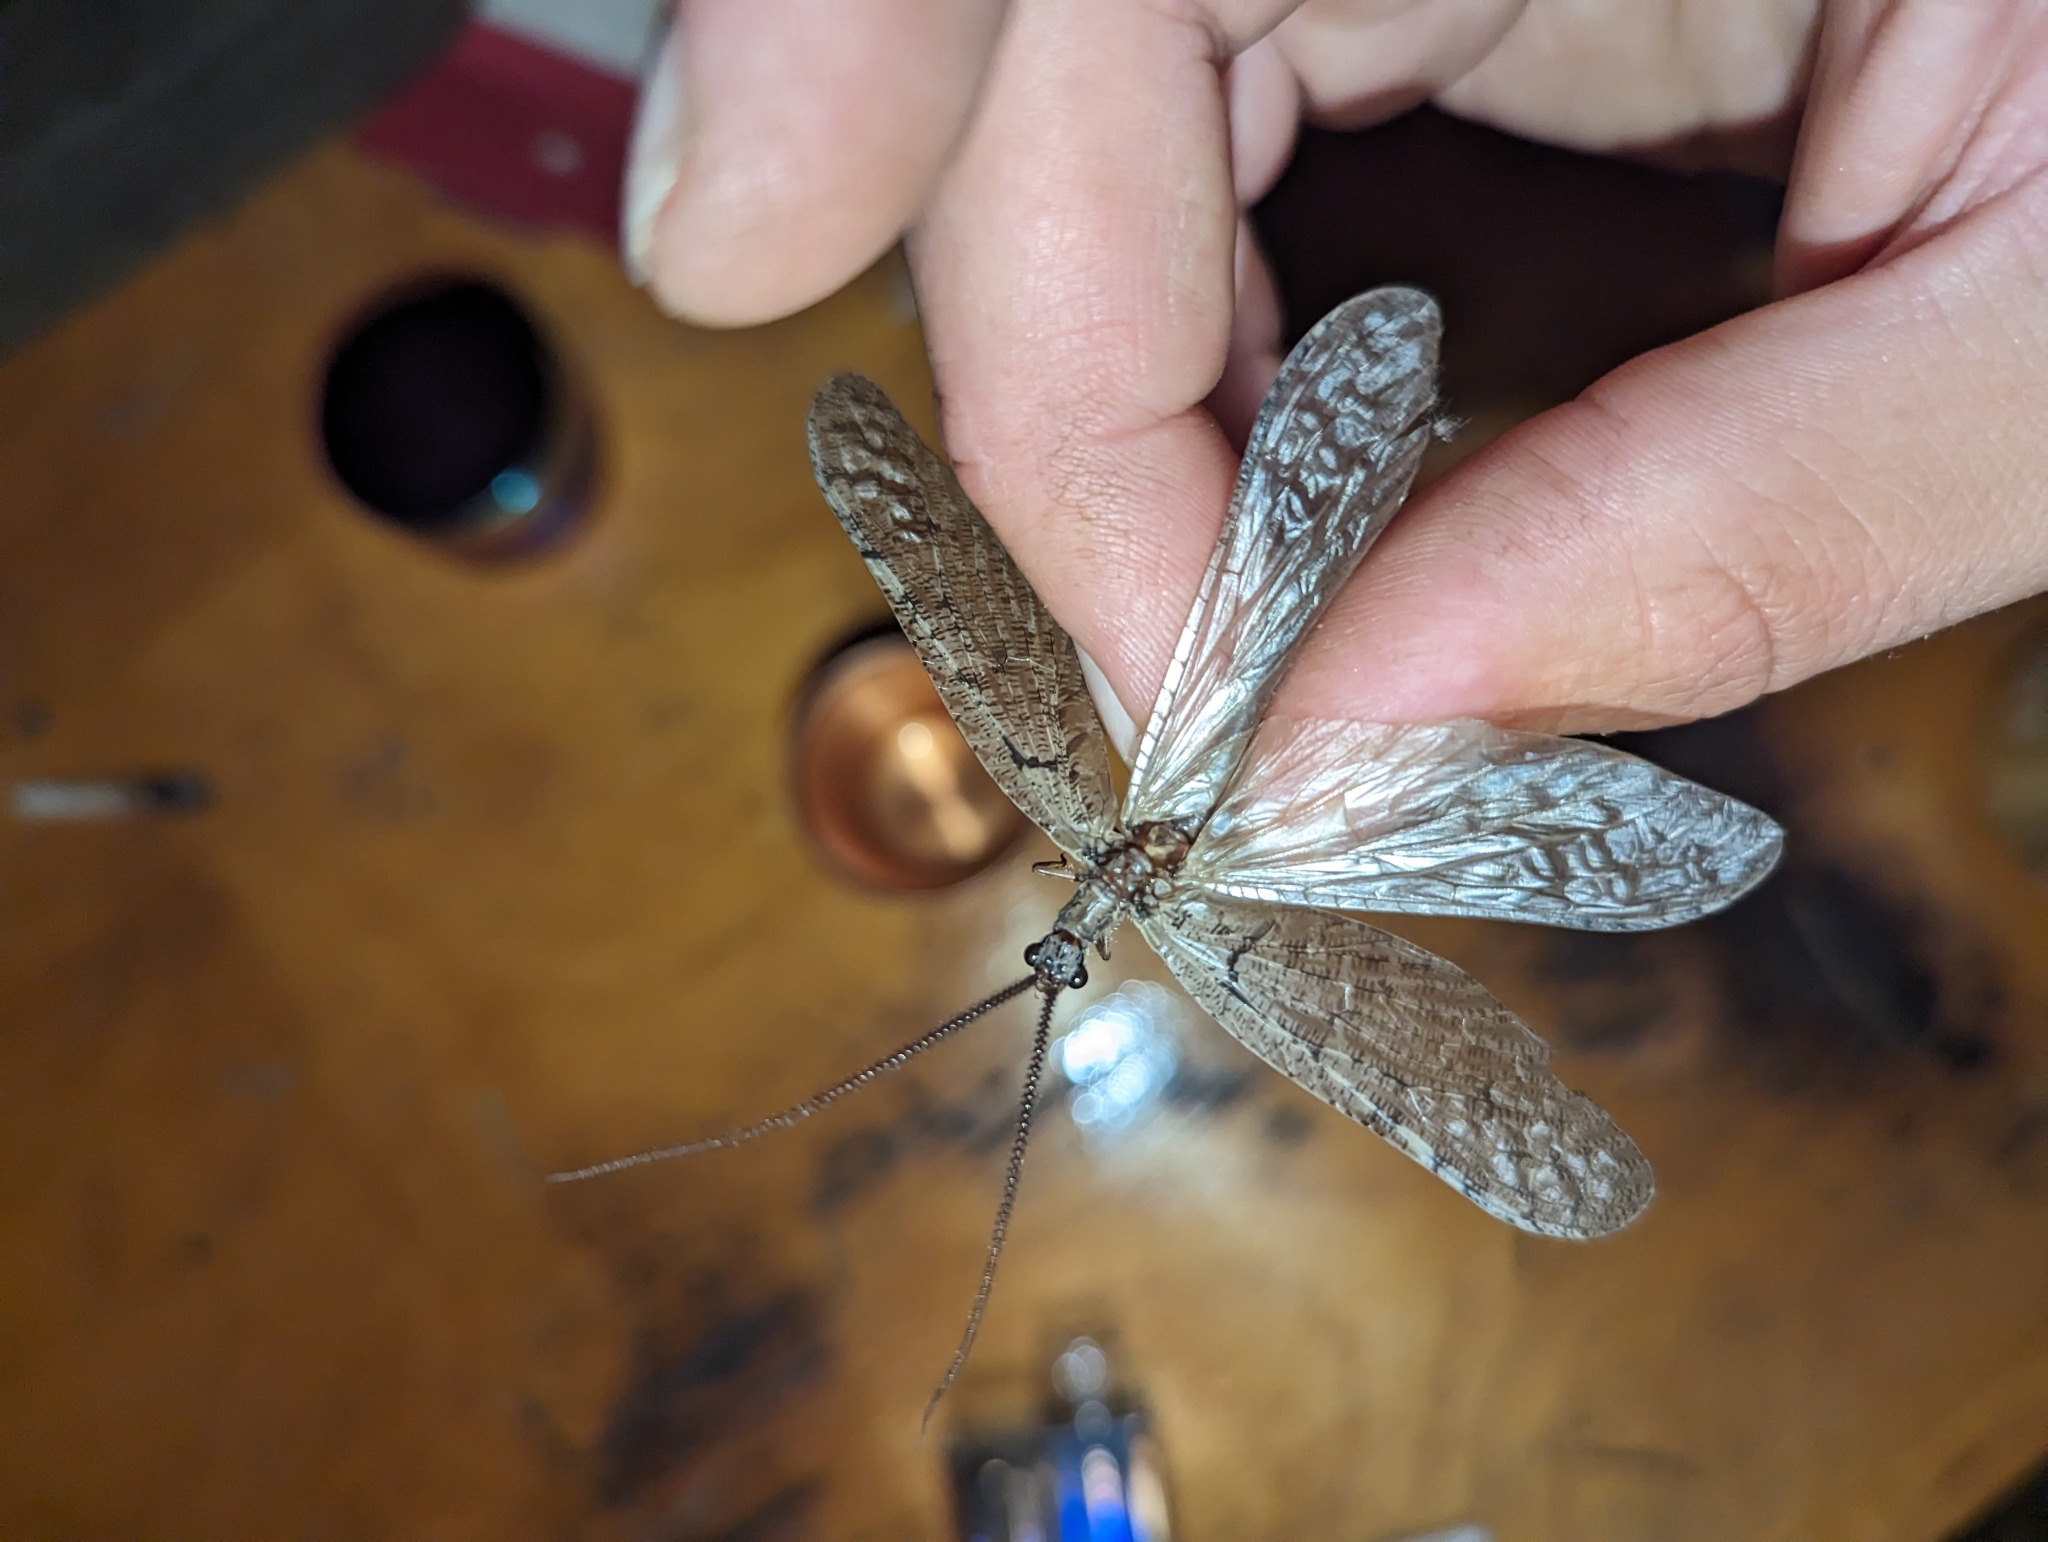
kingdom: Animalia
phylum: Arthropoda
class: Insecta
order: Megaloptera
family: Corydalidae
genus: Neohermes
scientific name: Neohermes californicus
